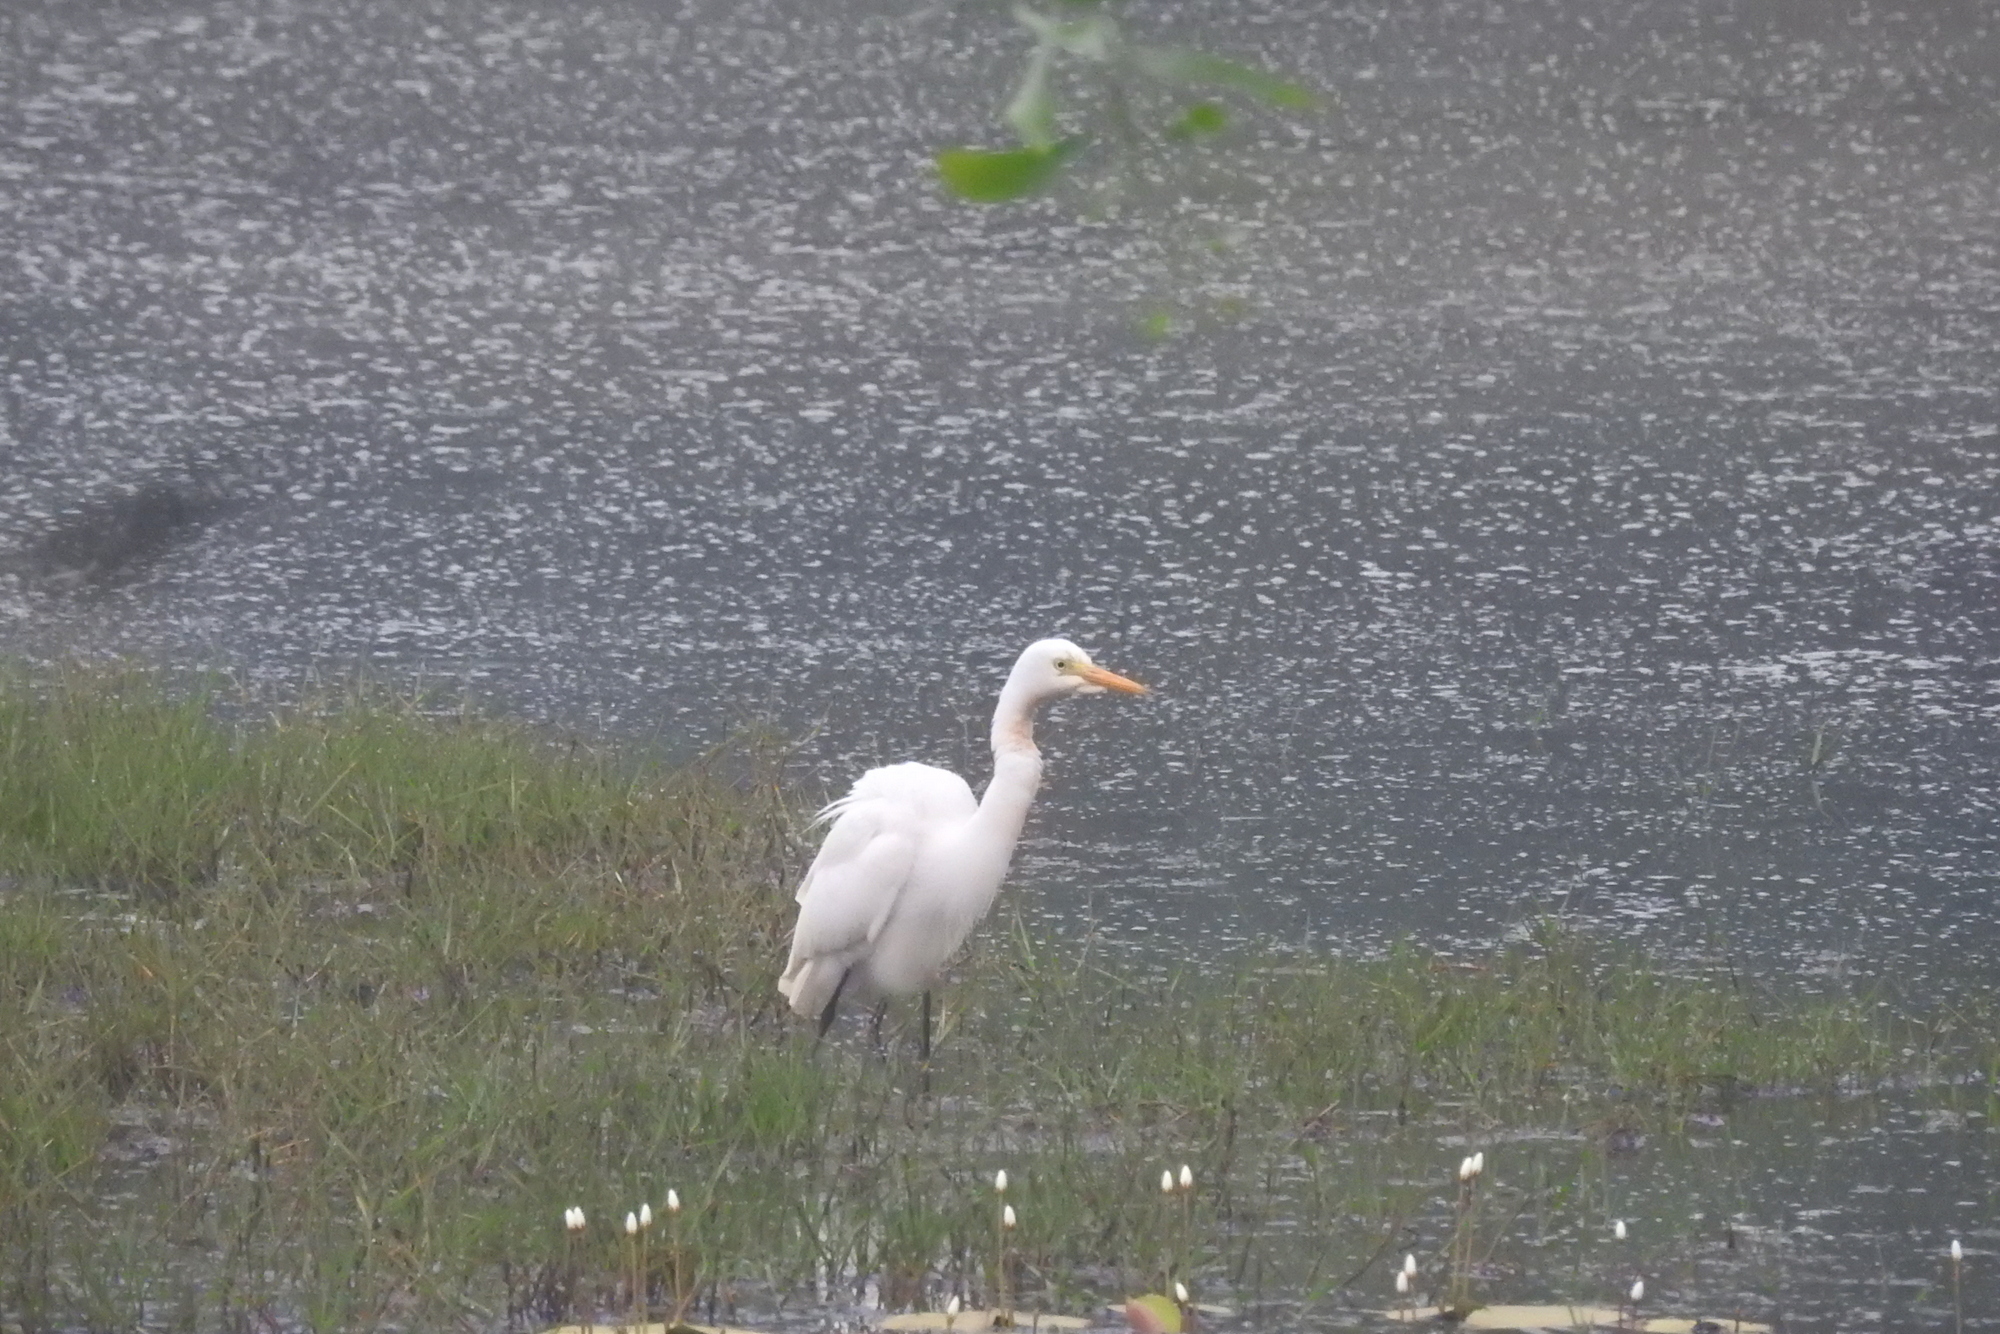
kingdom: Animalia
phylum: Chordata
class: Aves
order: Pelecaniformes
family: Ardeidae
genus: Egretta
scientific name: Egretta intermedia
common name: Intermediate egret
